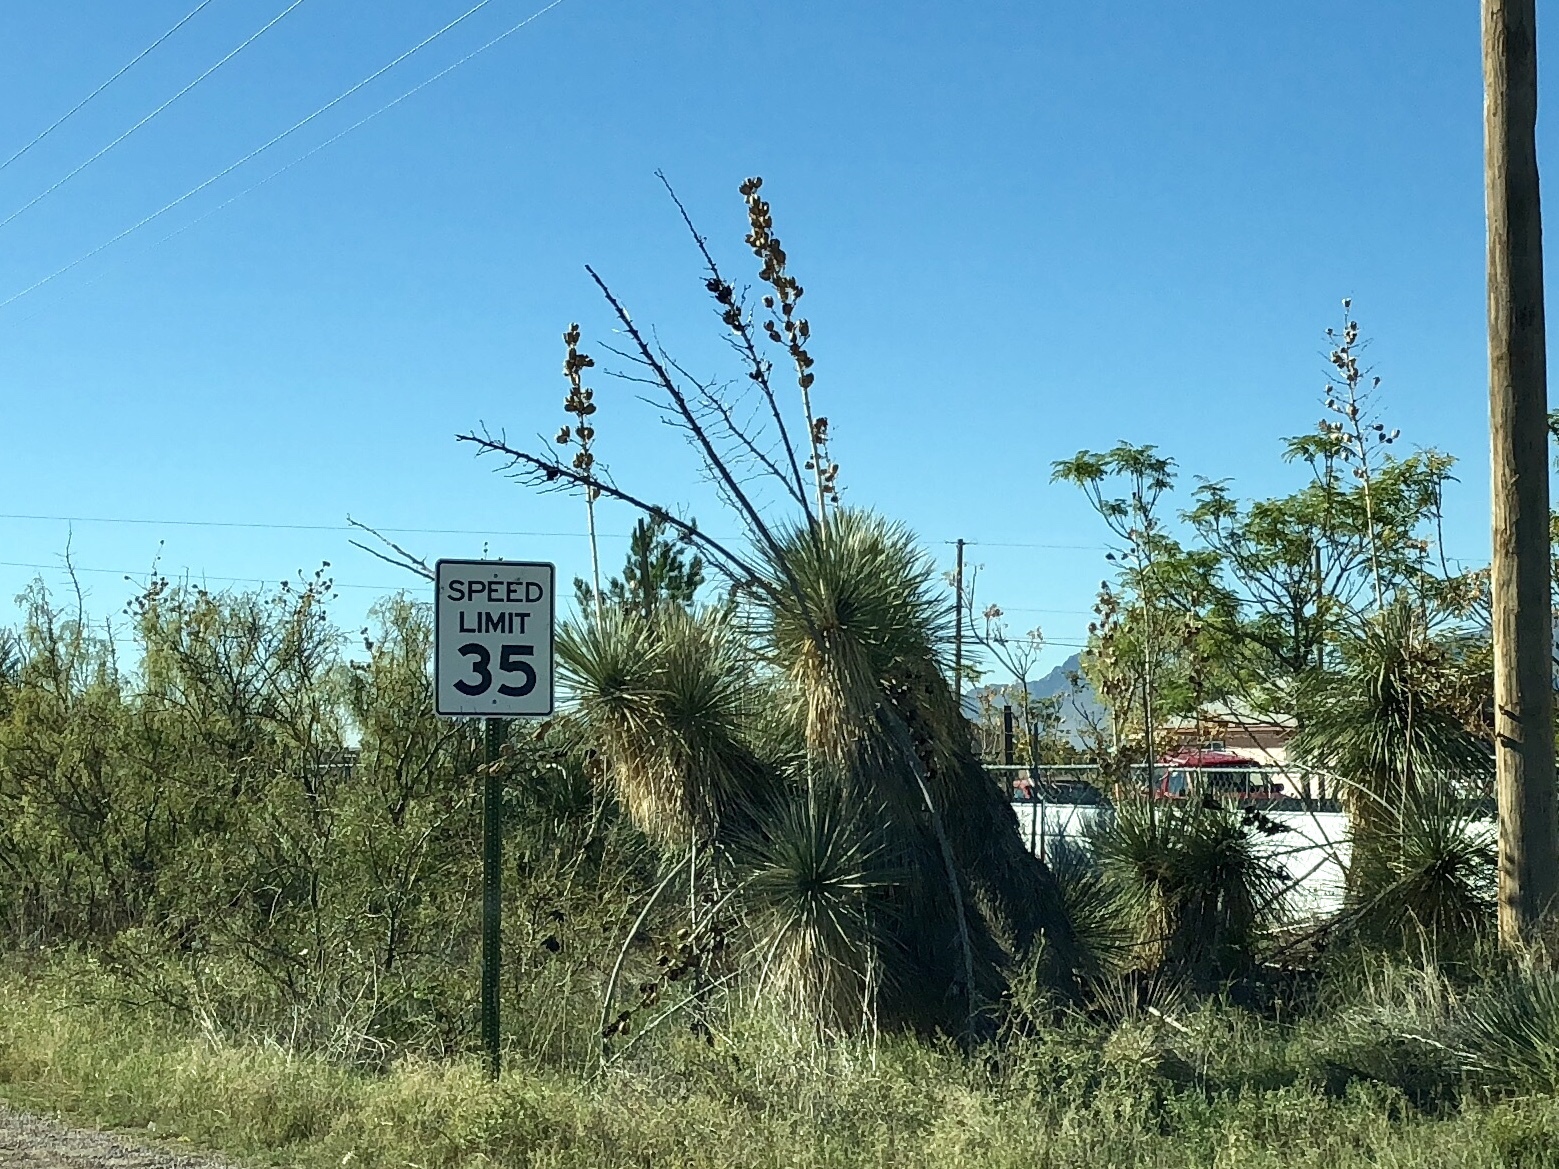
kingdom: Plantae
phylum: Tracheophyta
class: Liliopsida
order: Asparagales
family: Asparagaceae
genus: Yucca
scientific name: Yucca elata
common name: Palmella
